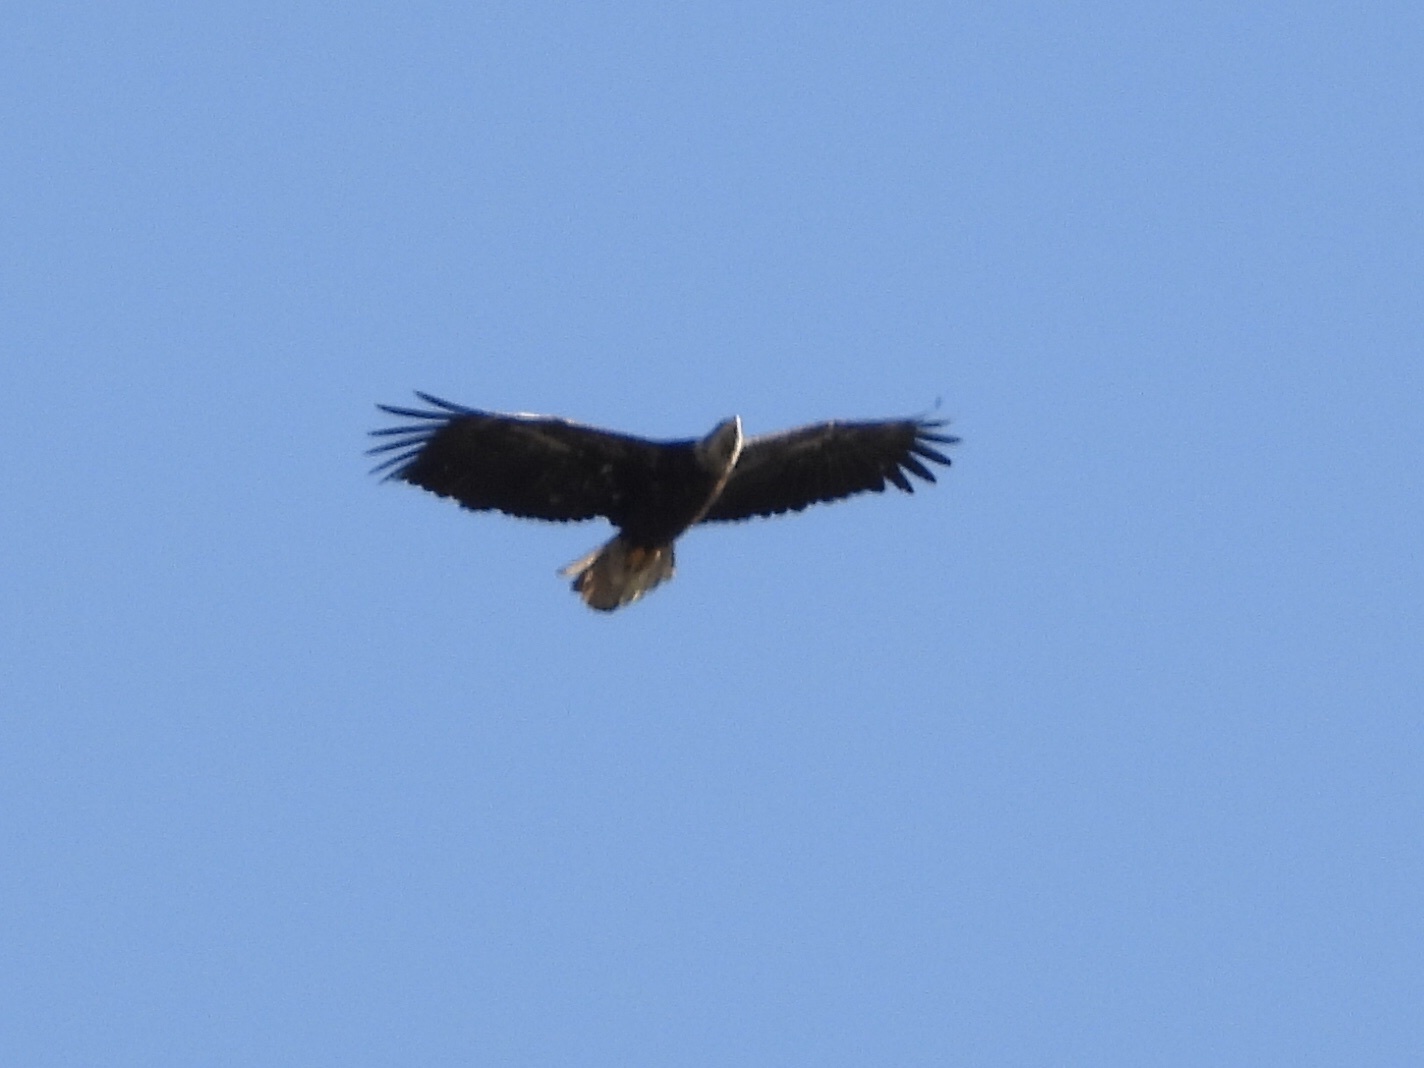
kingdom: Animalia
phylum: Chordata
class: Aves
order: Accipitriformes
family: Accipitridae
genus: Haliaeetus
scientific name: Haliaeetus leucocephalus
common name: Bald eagle
